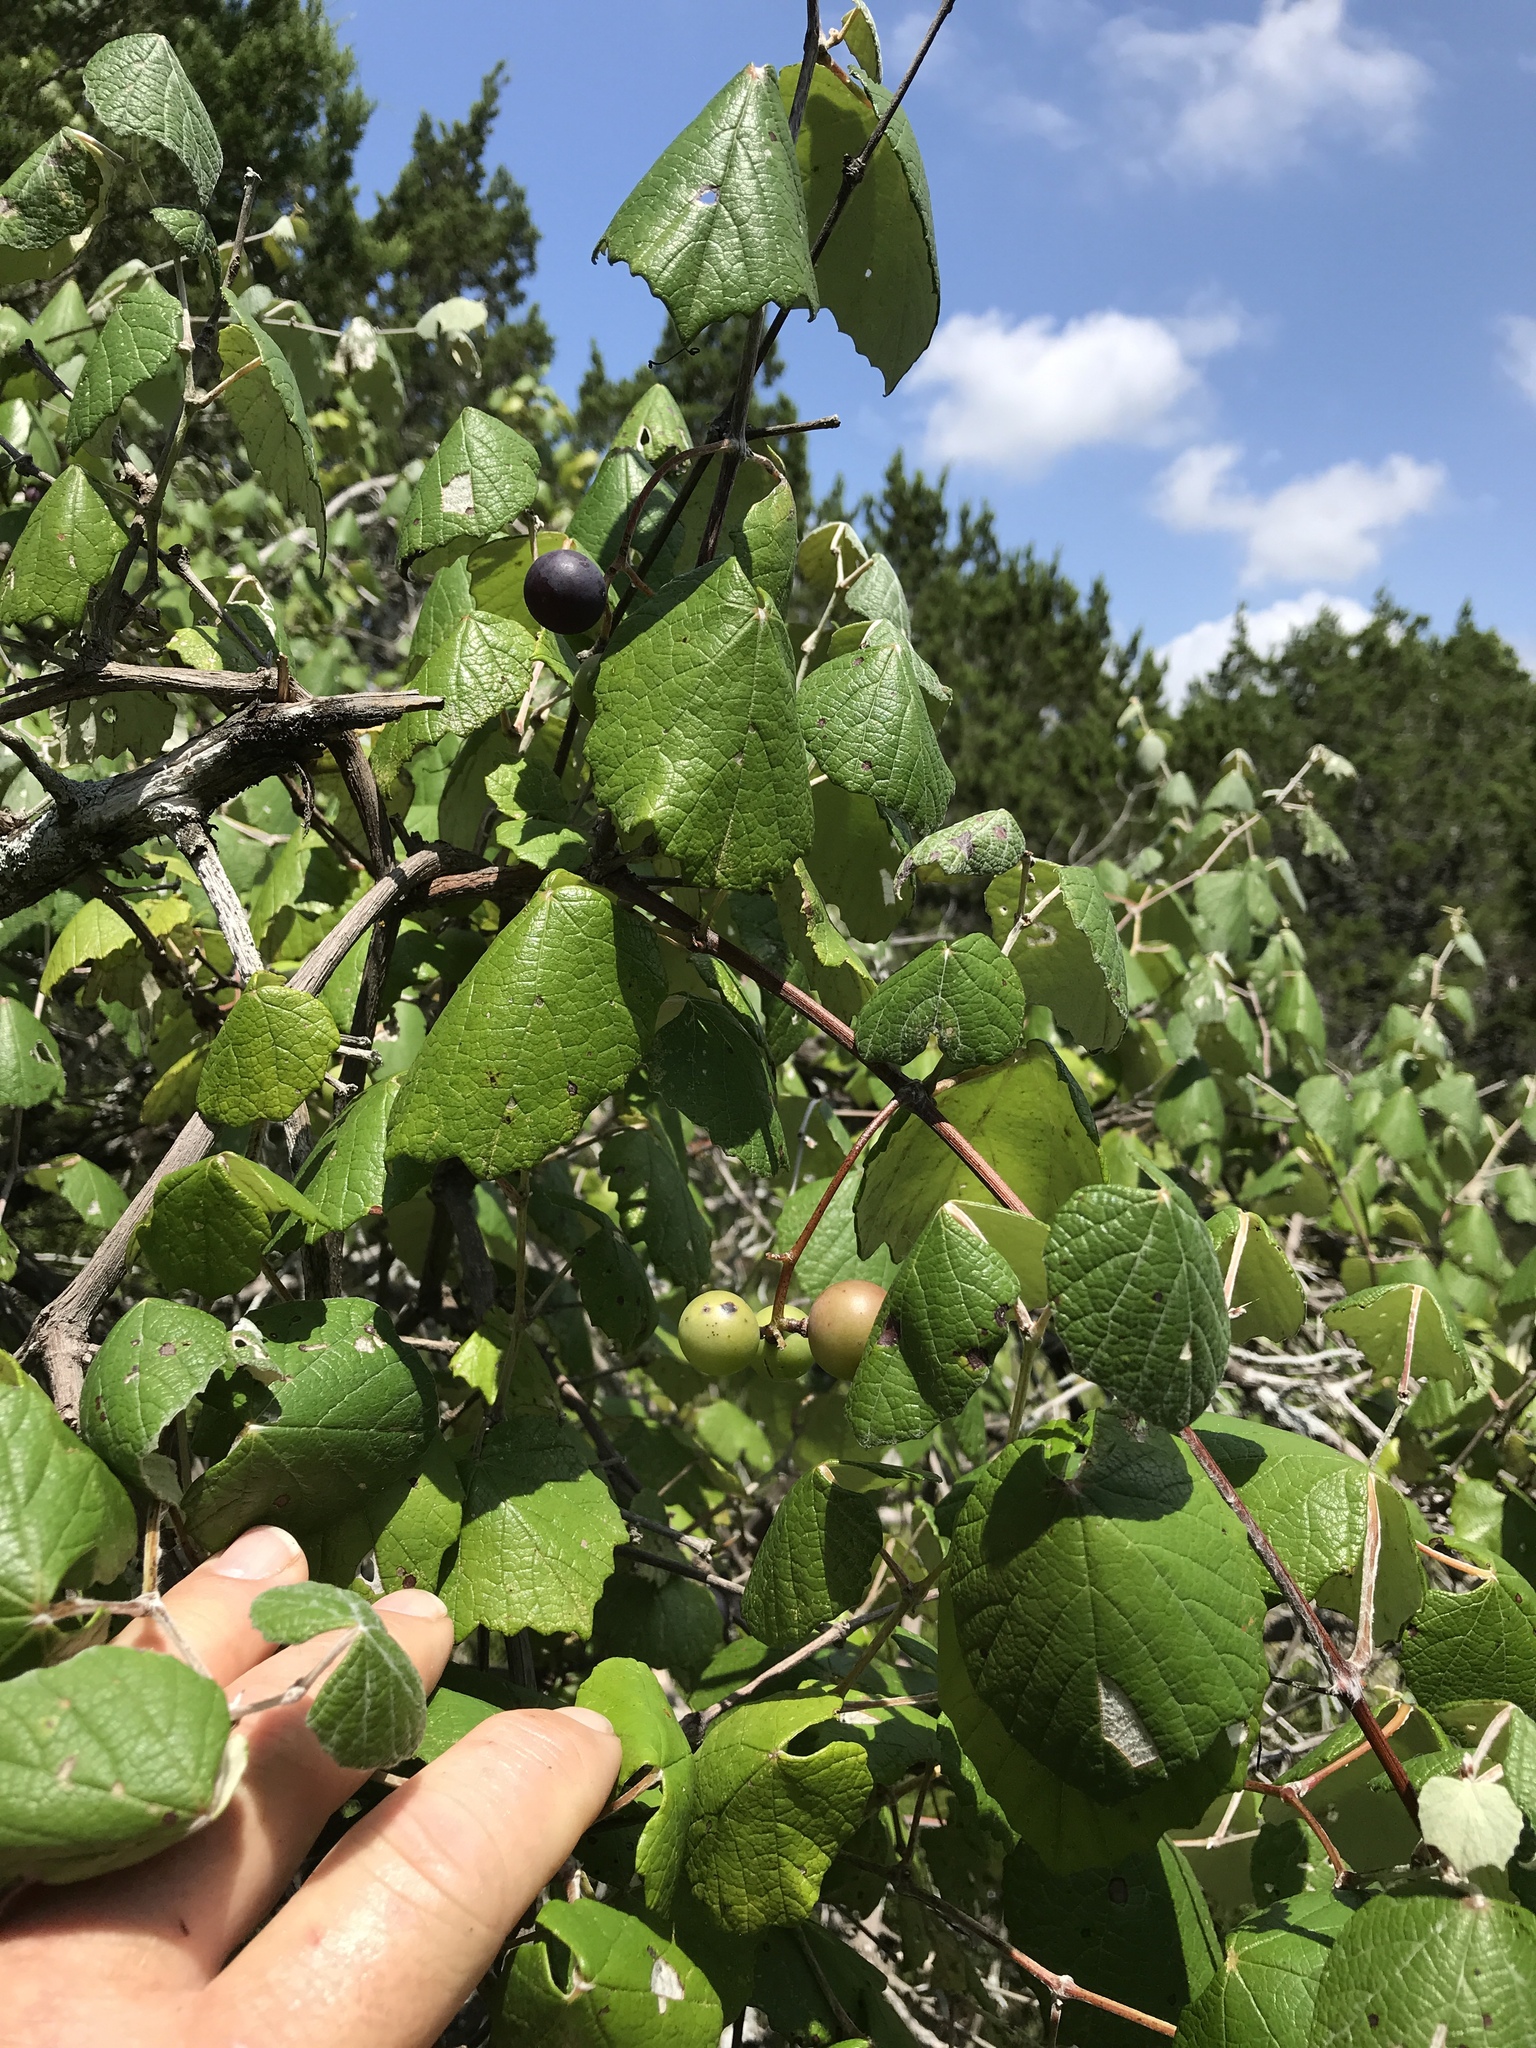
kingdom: Plantae
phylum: Tracheophyta
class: Magnoliopsida
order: Vitales
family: Vitaceae
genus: Vitis
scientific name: Vitis mustangensis
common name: Mustang grape
